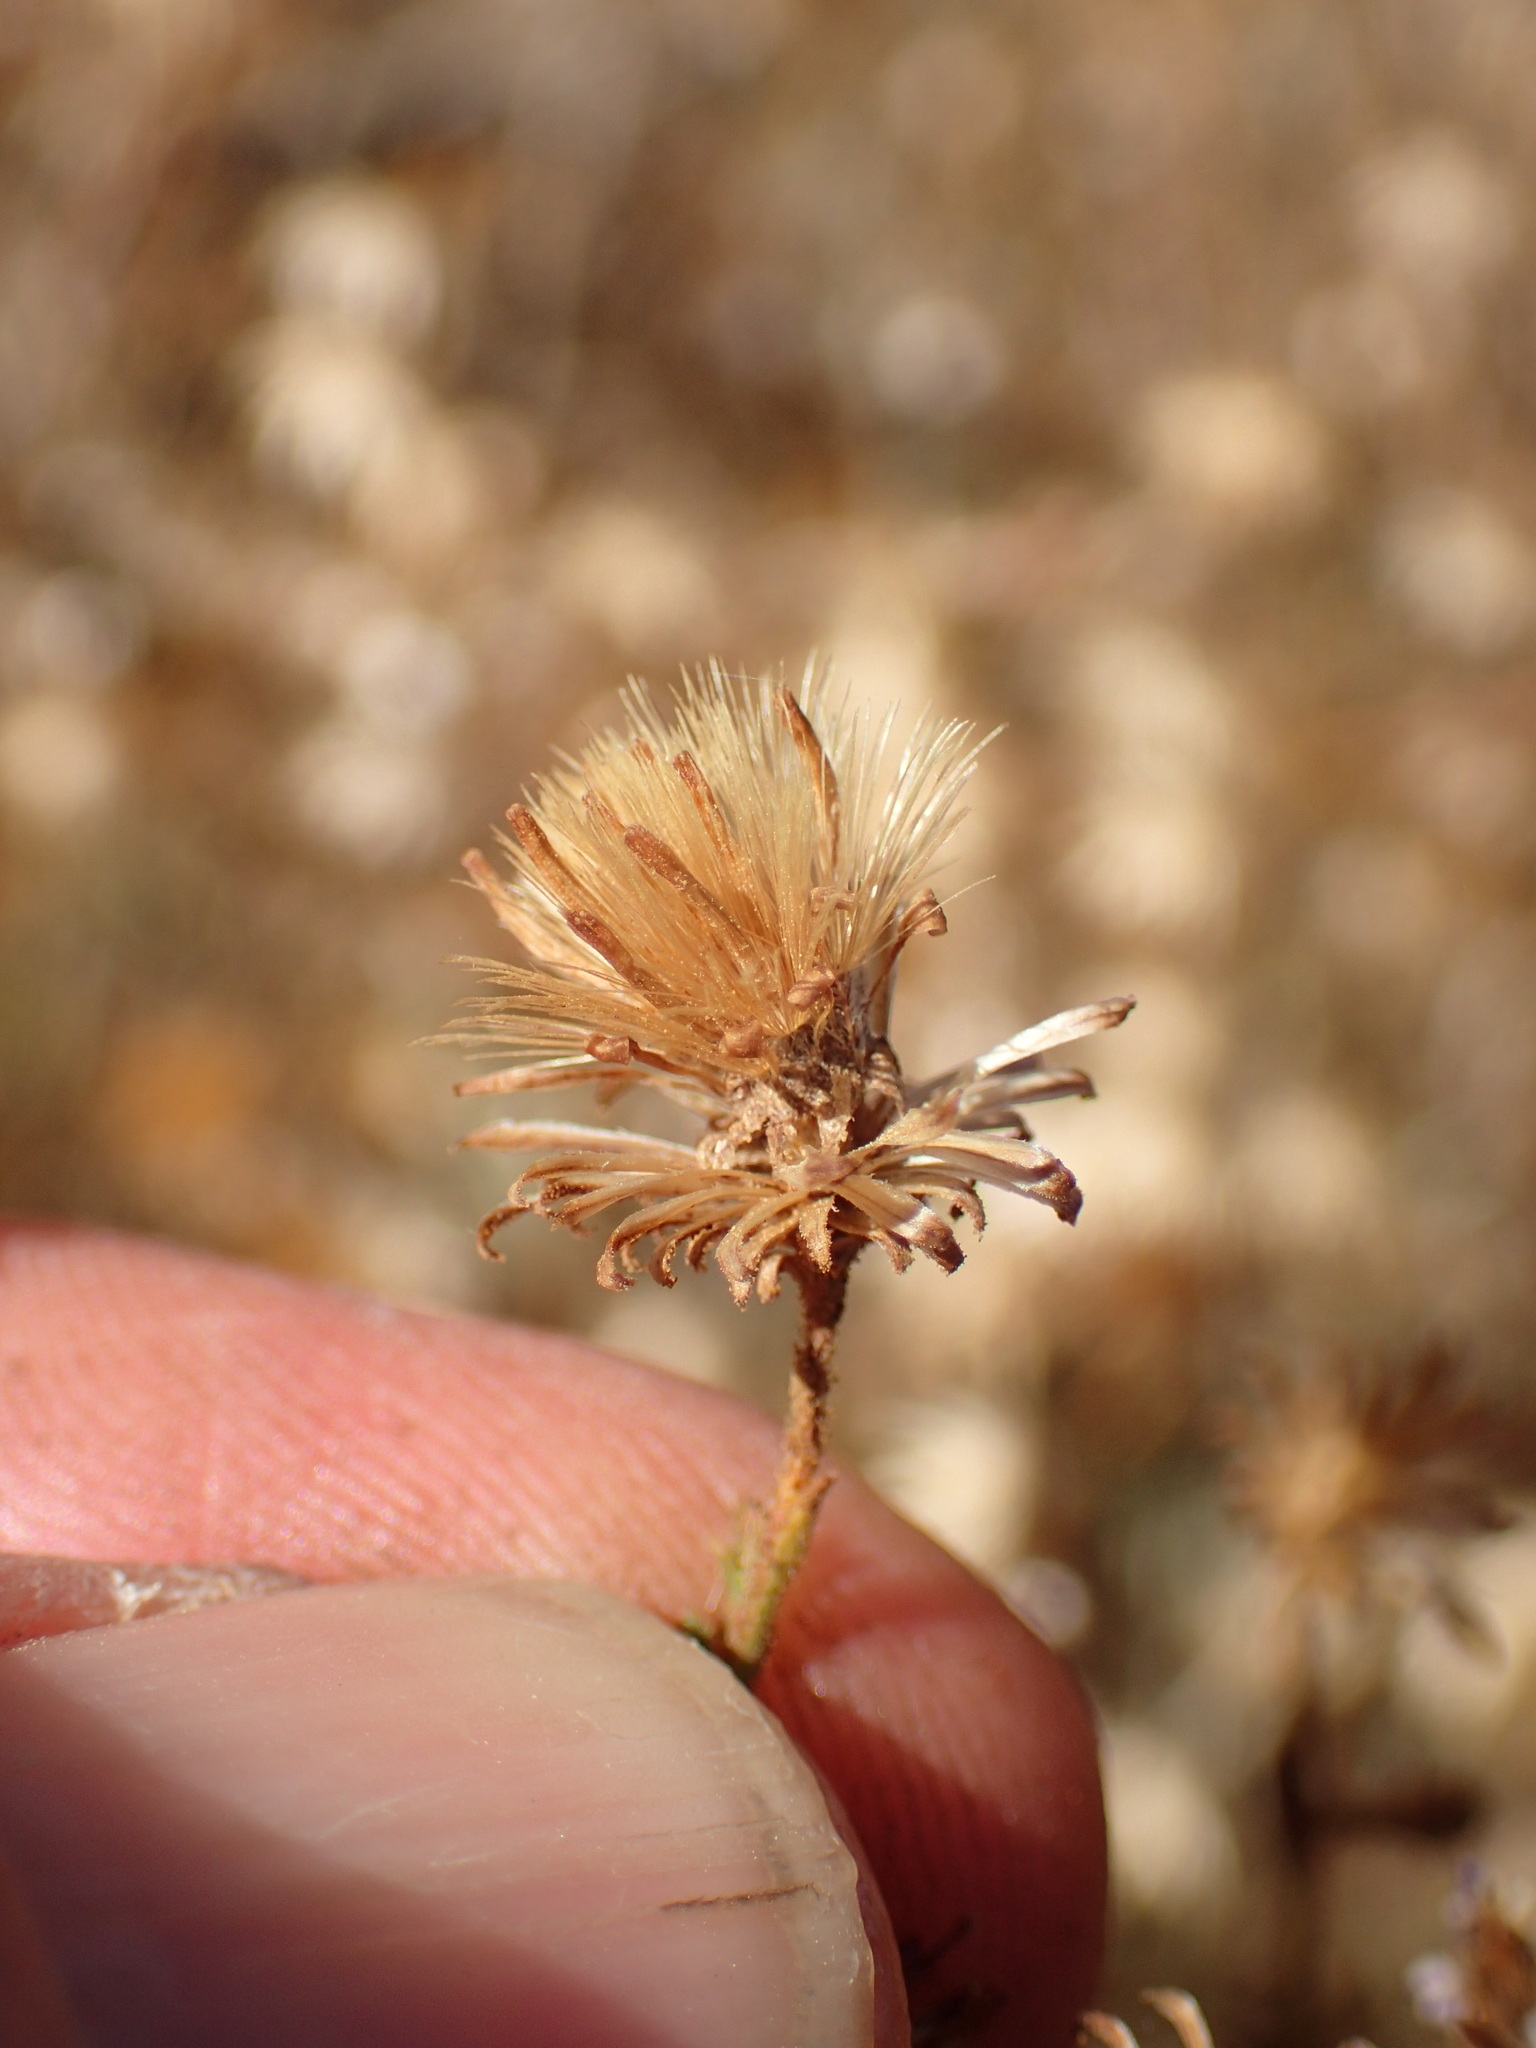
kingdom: Plantae
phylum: Tracheophyta
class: Magnoliopsida
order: Asterales
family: Asteraceae
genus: Corethrogyne
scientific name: Corethrogyne filaginifolia
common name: Sand-aster
